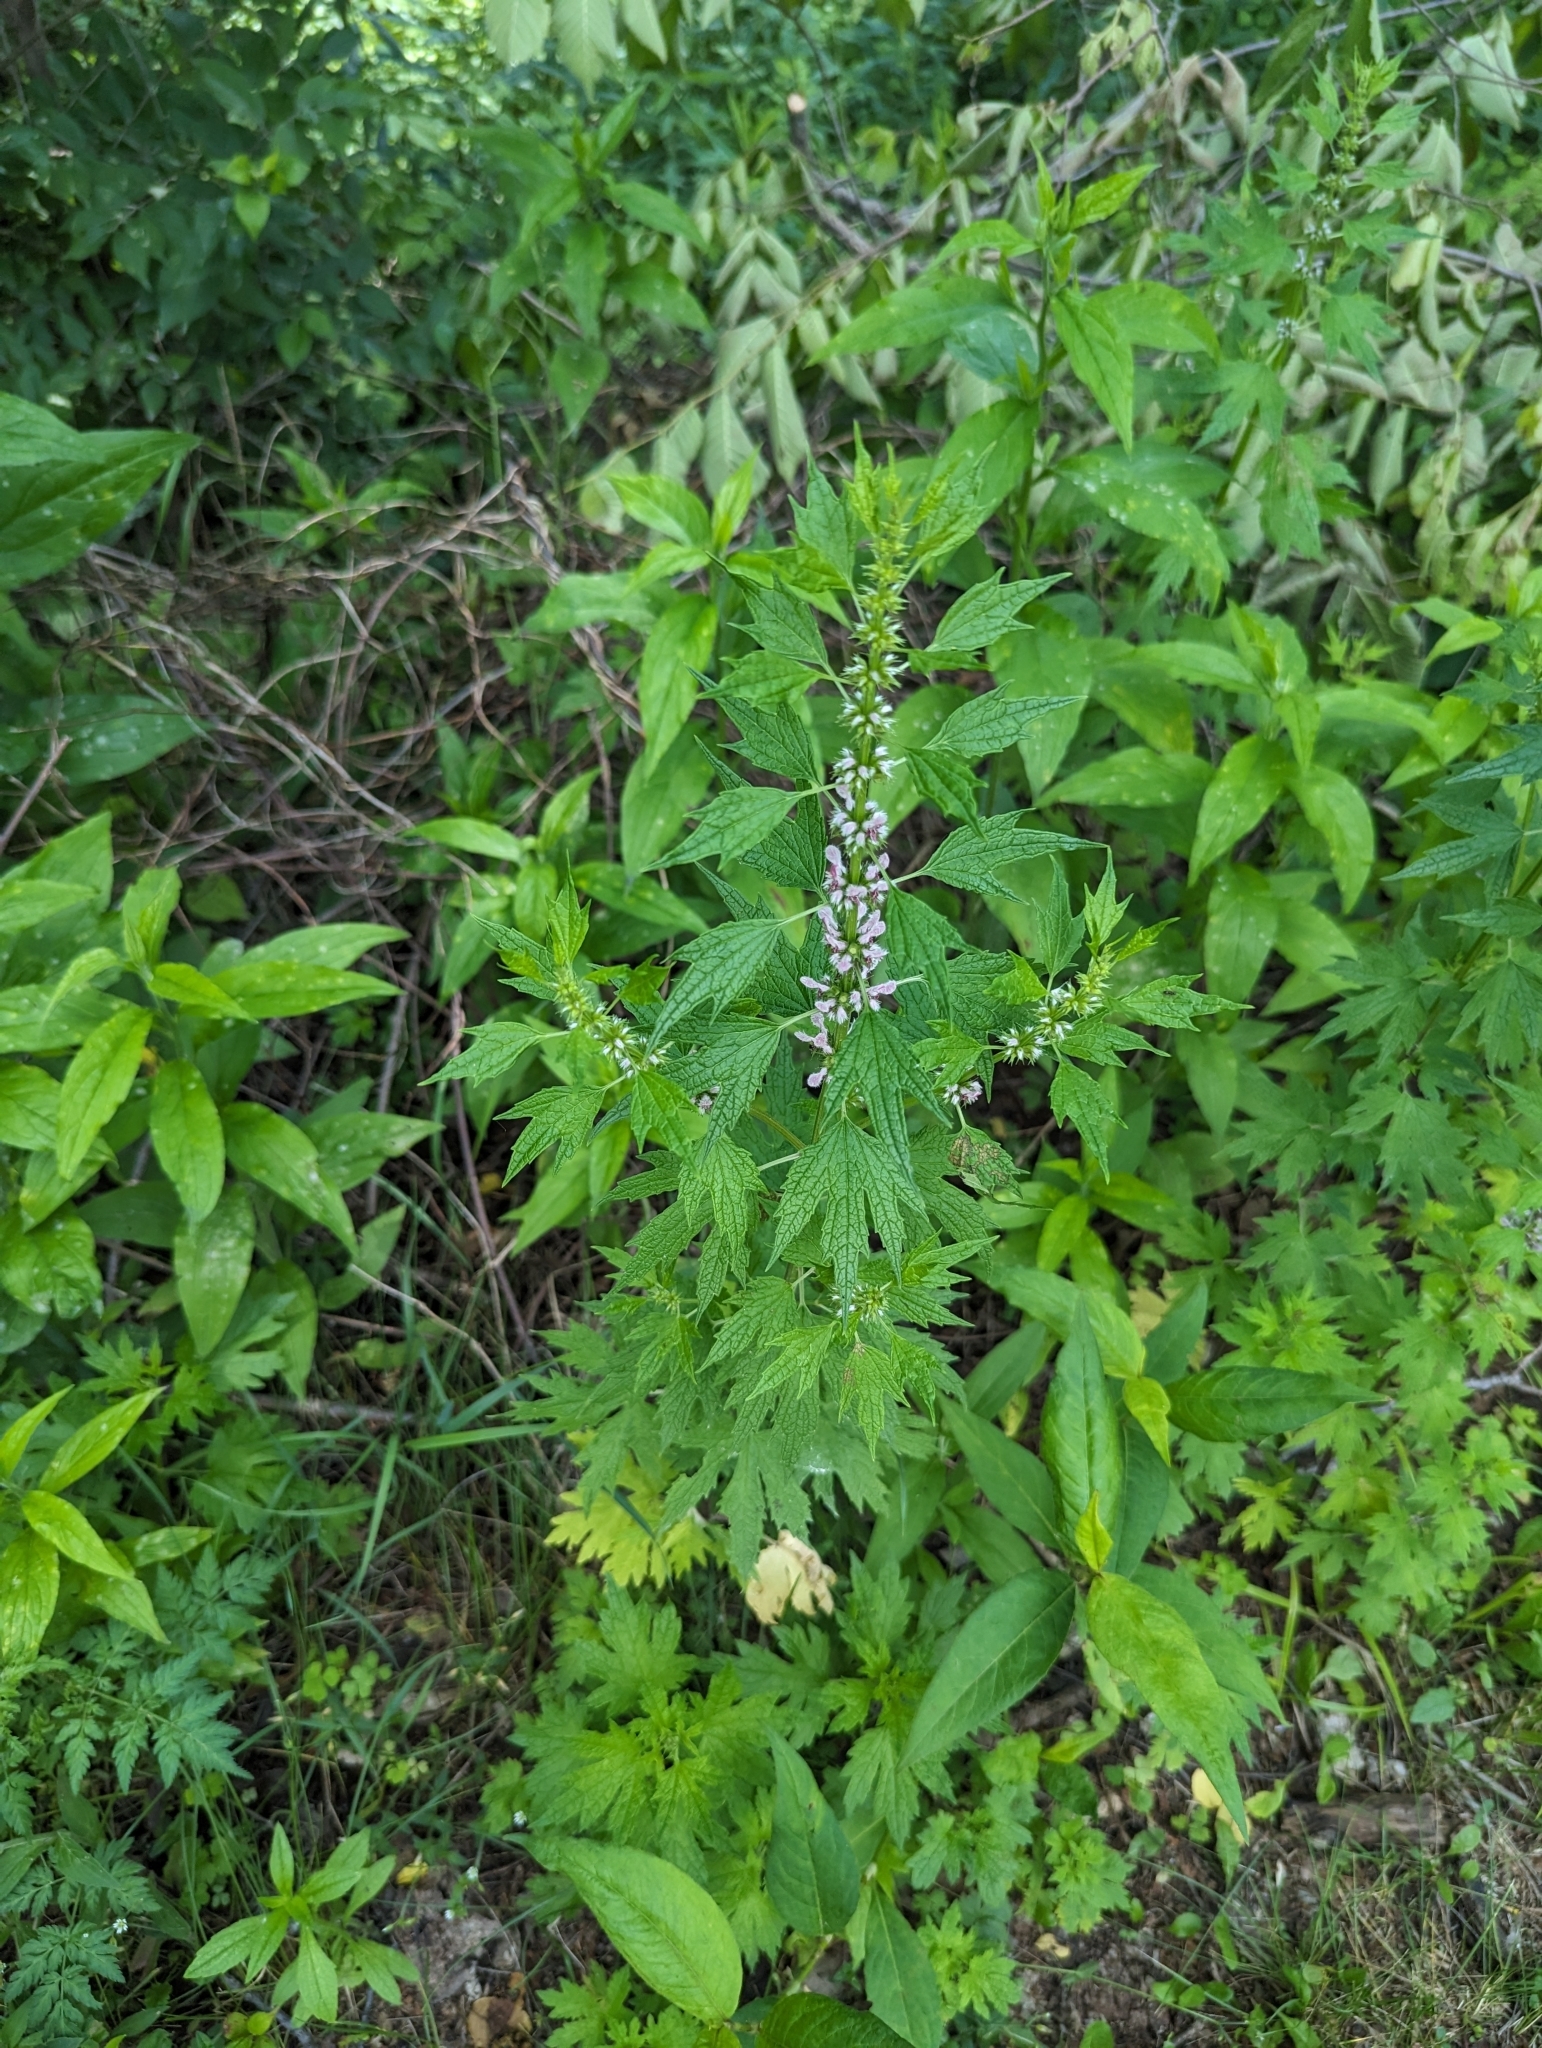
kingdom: Plantae
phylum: Tracheophyta
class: Magnoliopsida
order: Lamiales
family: Lamiaceae
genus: Leonurus
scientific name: Leonurus cardiaca
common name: Motherwort
